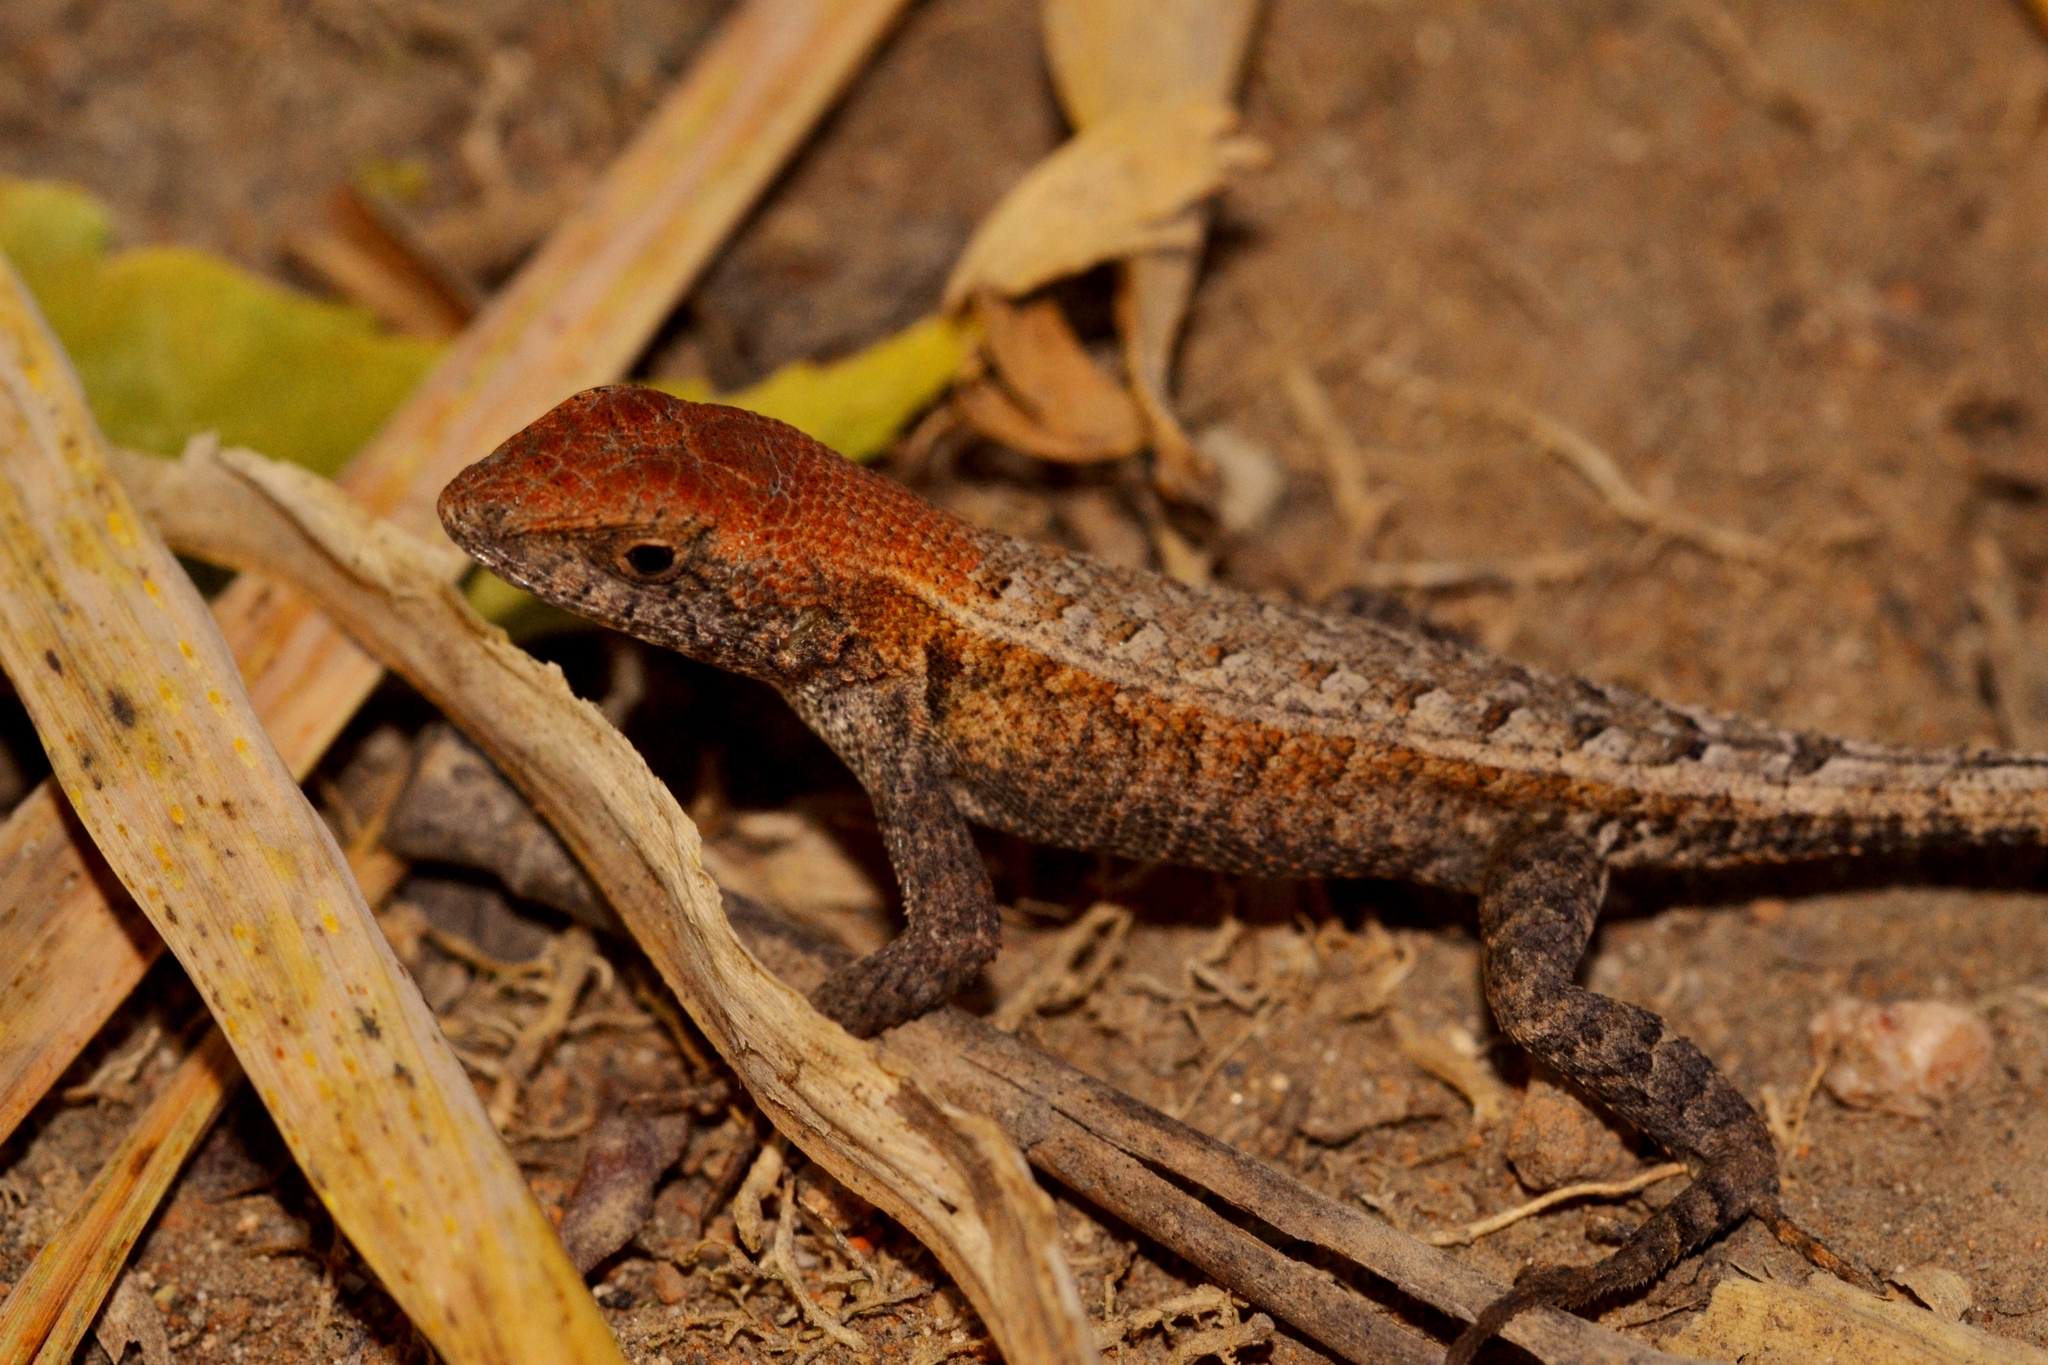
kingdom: Animalia
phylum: Chordata
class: Squamata
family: Phrynosomatidae
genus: Sceloporus
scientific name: Sceloporus carinatus
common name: Keeled spiny lizard
